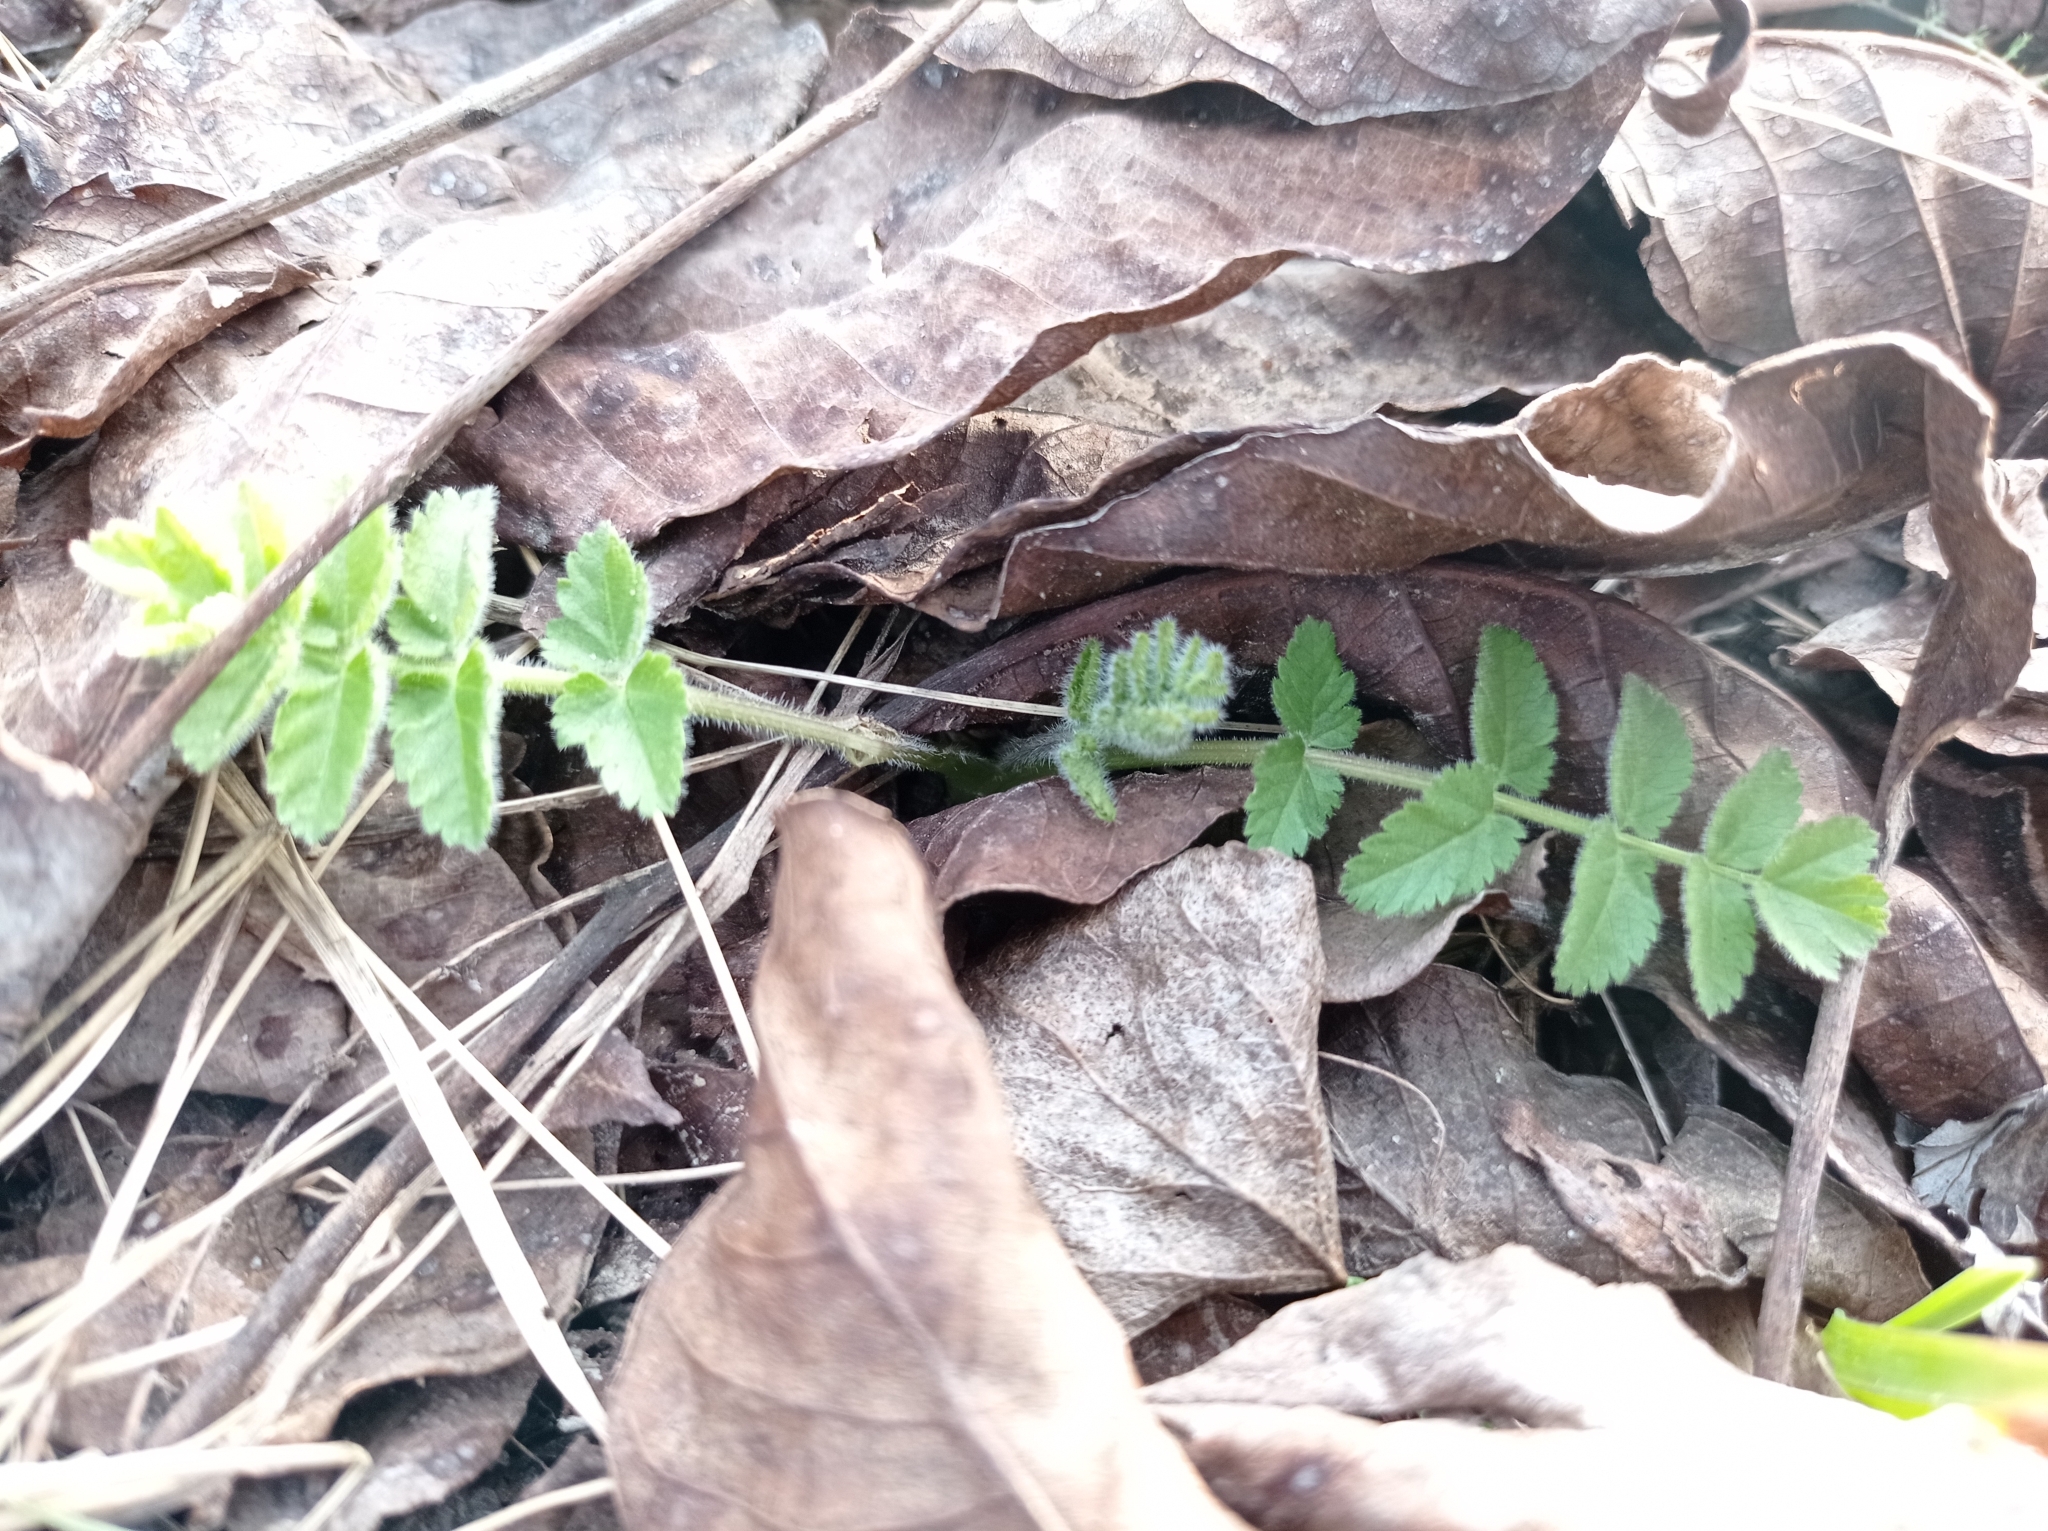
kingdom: Plantae
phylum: Tracheophyta
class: Magnoliopsida
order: Apiales
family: Apiaceae
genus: Pimpinella
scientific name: Pimpinella saxifraga
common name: Burnet-saxifrage
